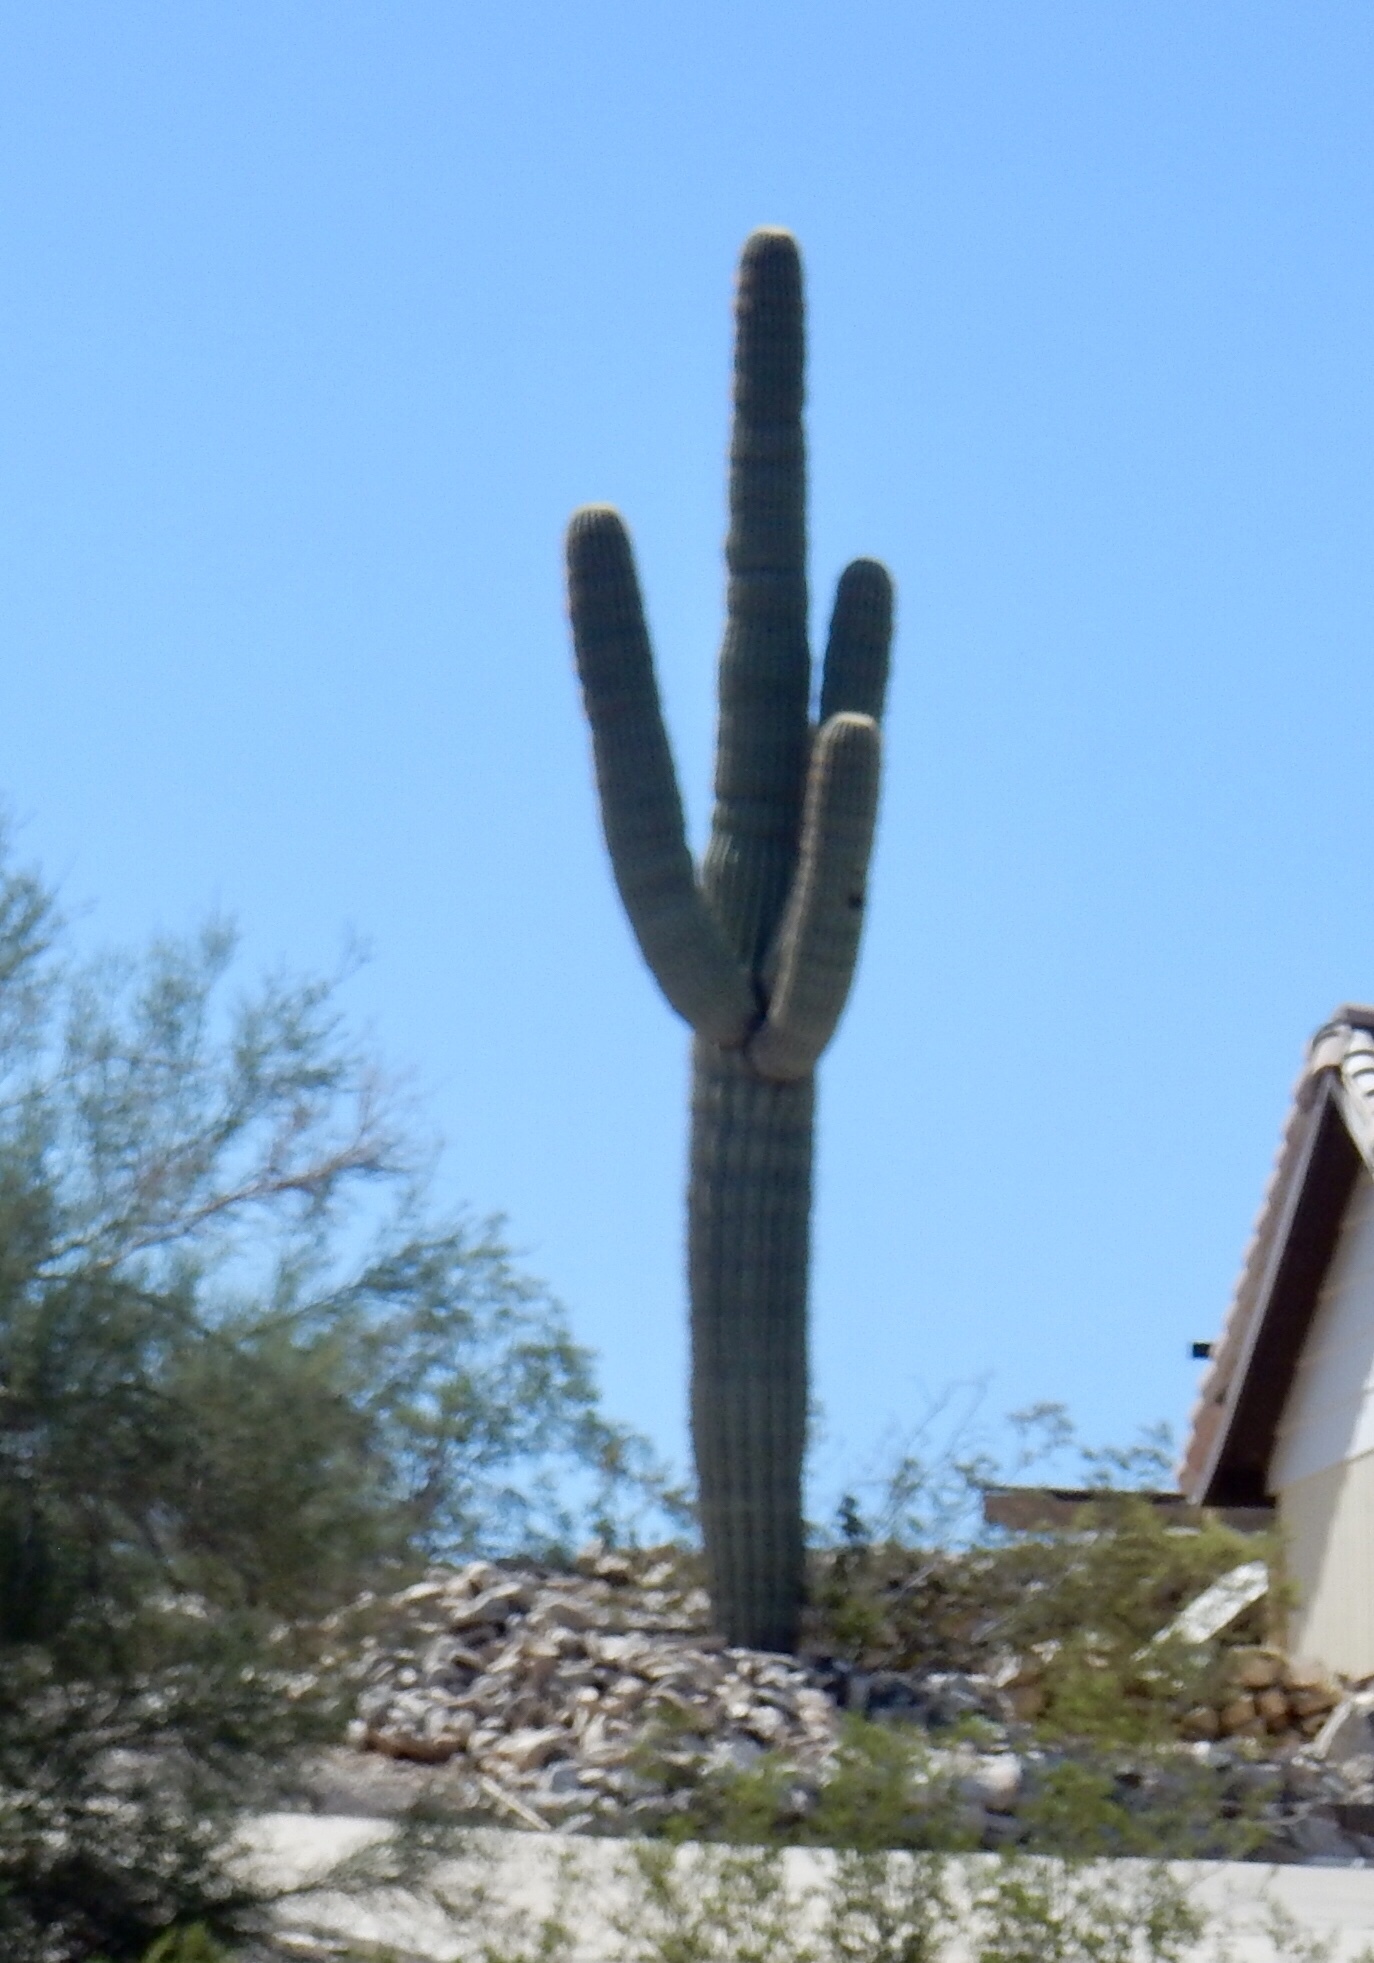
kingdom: Plantae
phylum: Tracheophyta
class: Magnoliopsida
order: Caryophyllales
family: Cactaceae
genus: Carnegiea
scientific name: Carnegiea gigantea
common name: Saguaro
